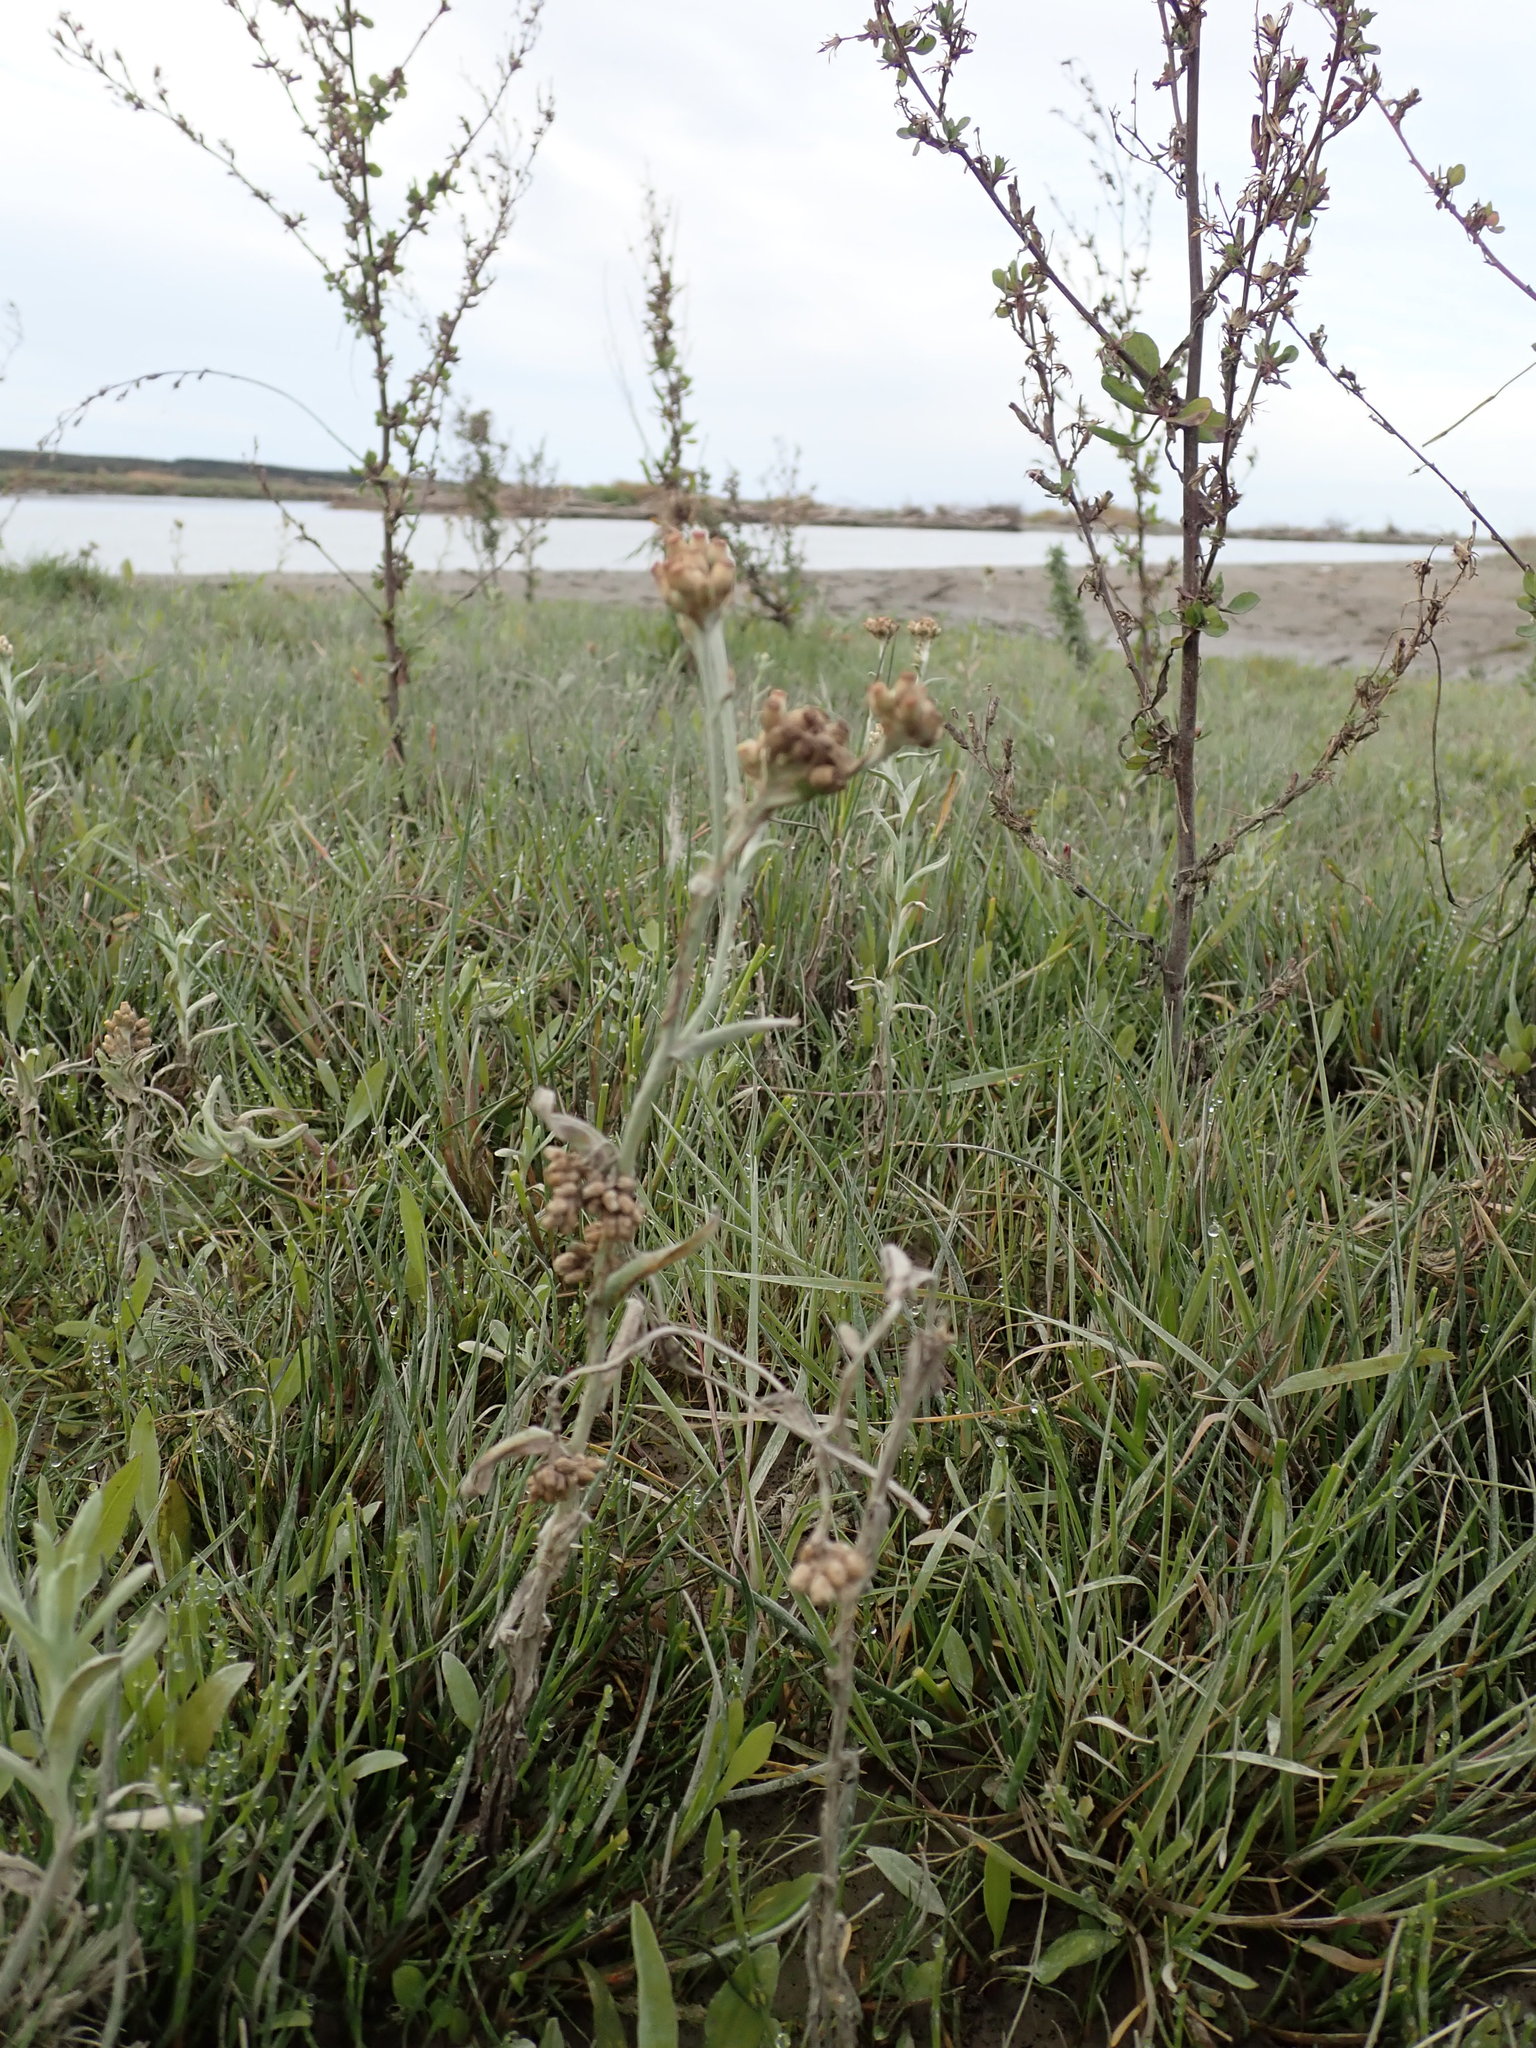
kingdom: Plantae
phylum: Tracheophyta
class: Magnoliopsida
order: Asterales
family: Asteraceae
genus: Helichrysum
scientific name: Helichrysum luteoalbum
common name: Daisy
